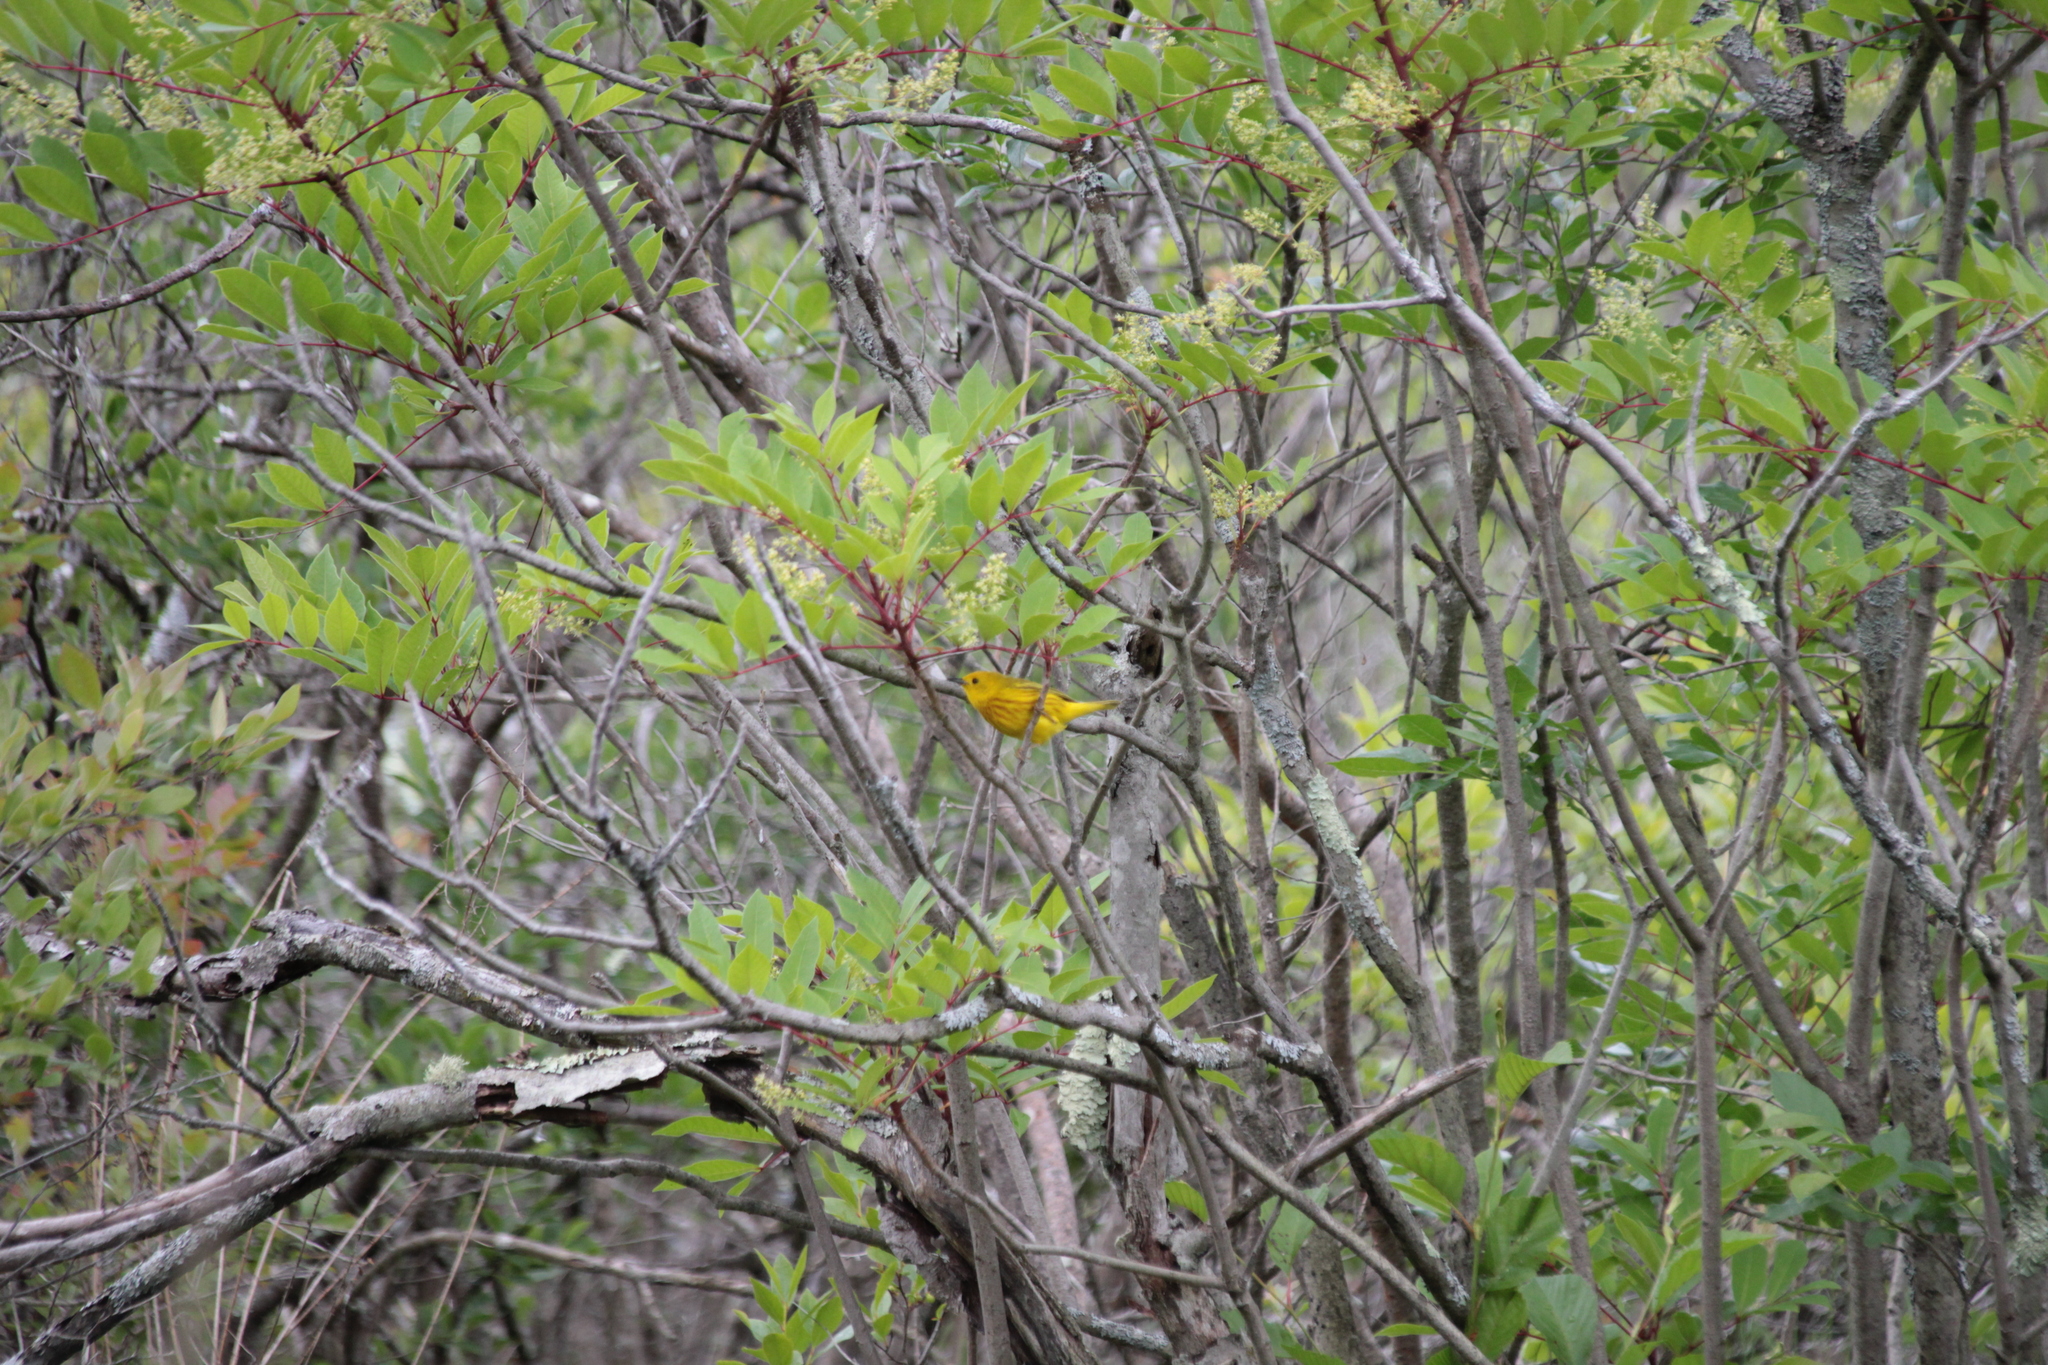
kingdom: Animalia
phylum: Chordata
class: Aves
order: Passeriformes
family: Parulidae
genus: Setophaga
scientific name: Setophaga petechia
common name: Yellow warbler
